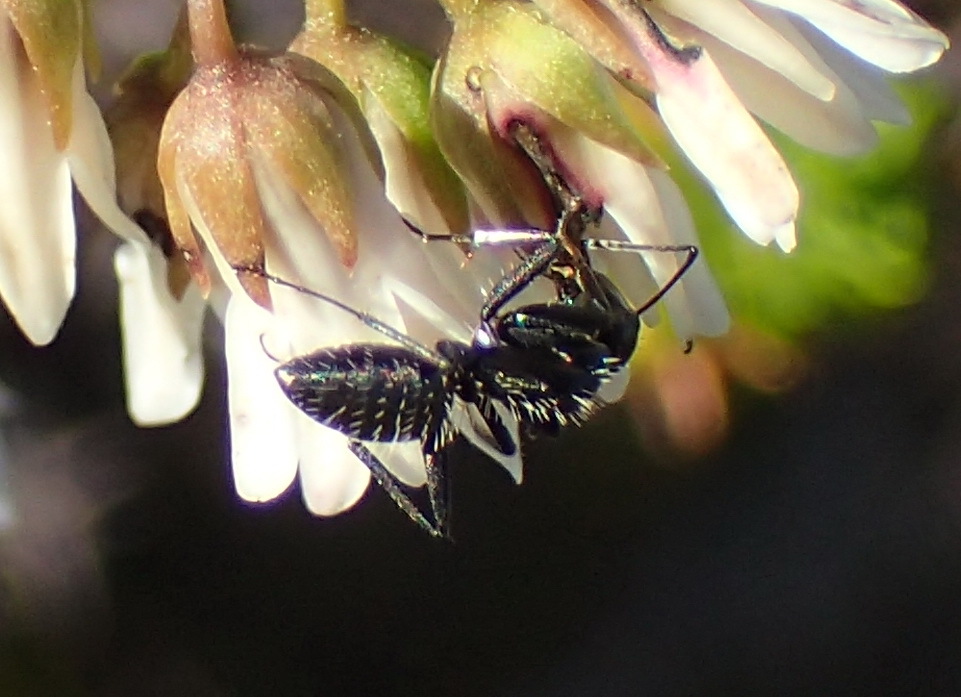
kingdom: Animalia
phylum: Arthropoda
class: Insecta
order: Hymenoptera
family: Formicidae
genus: Camponotus
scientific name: Camponotus niveosetosus
